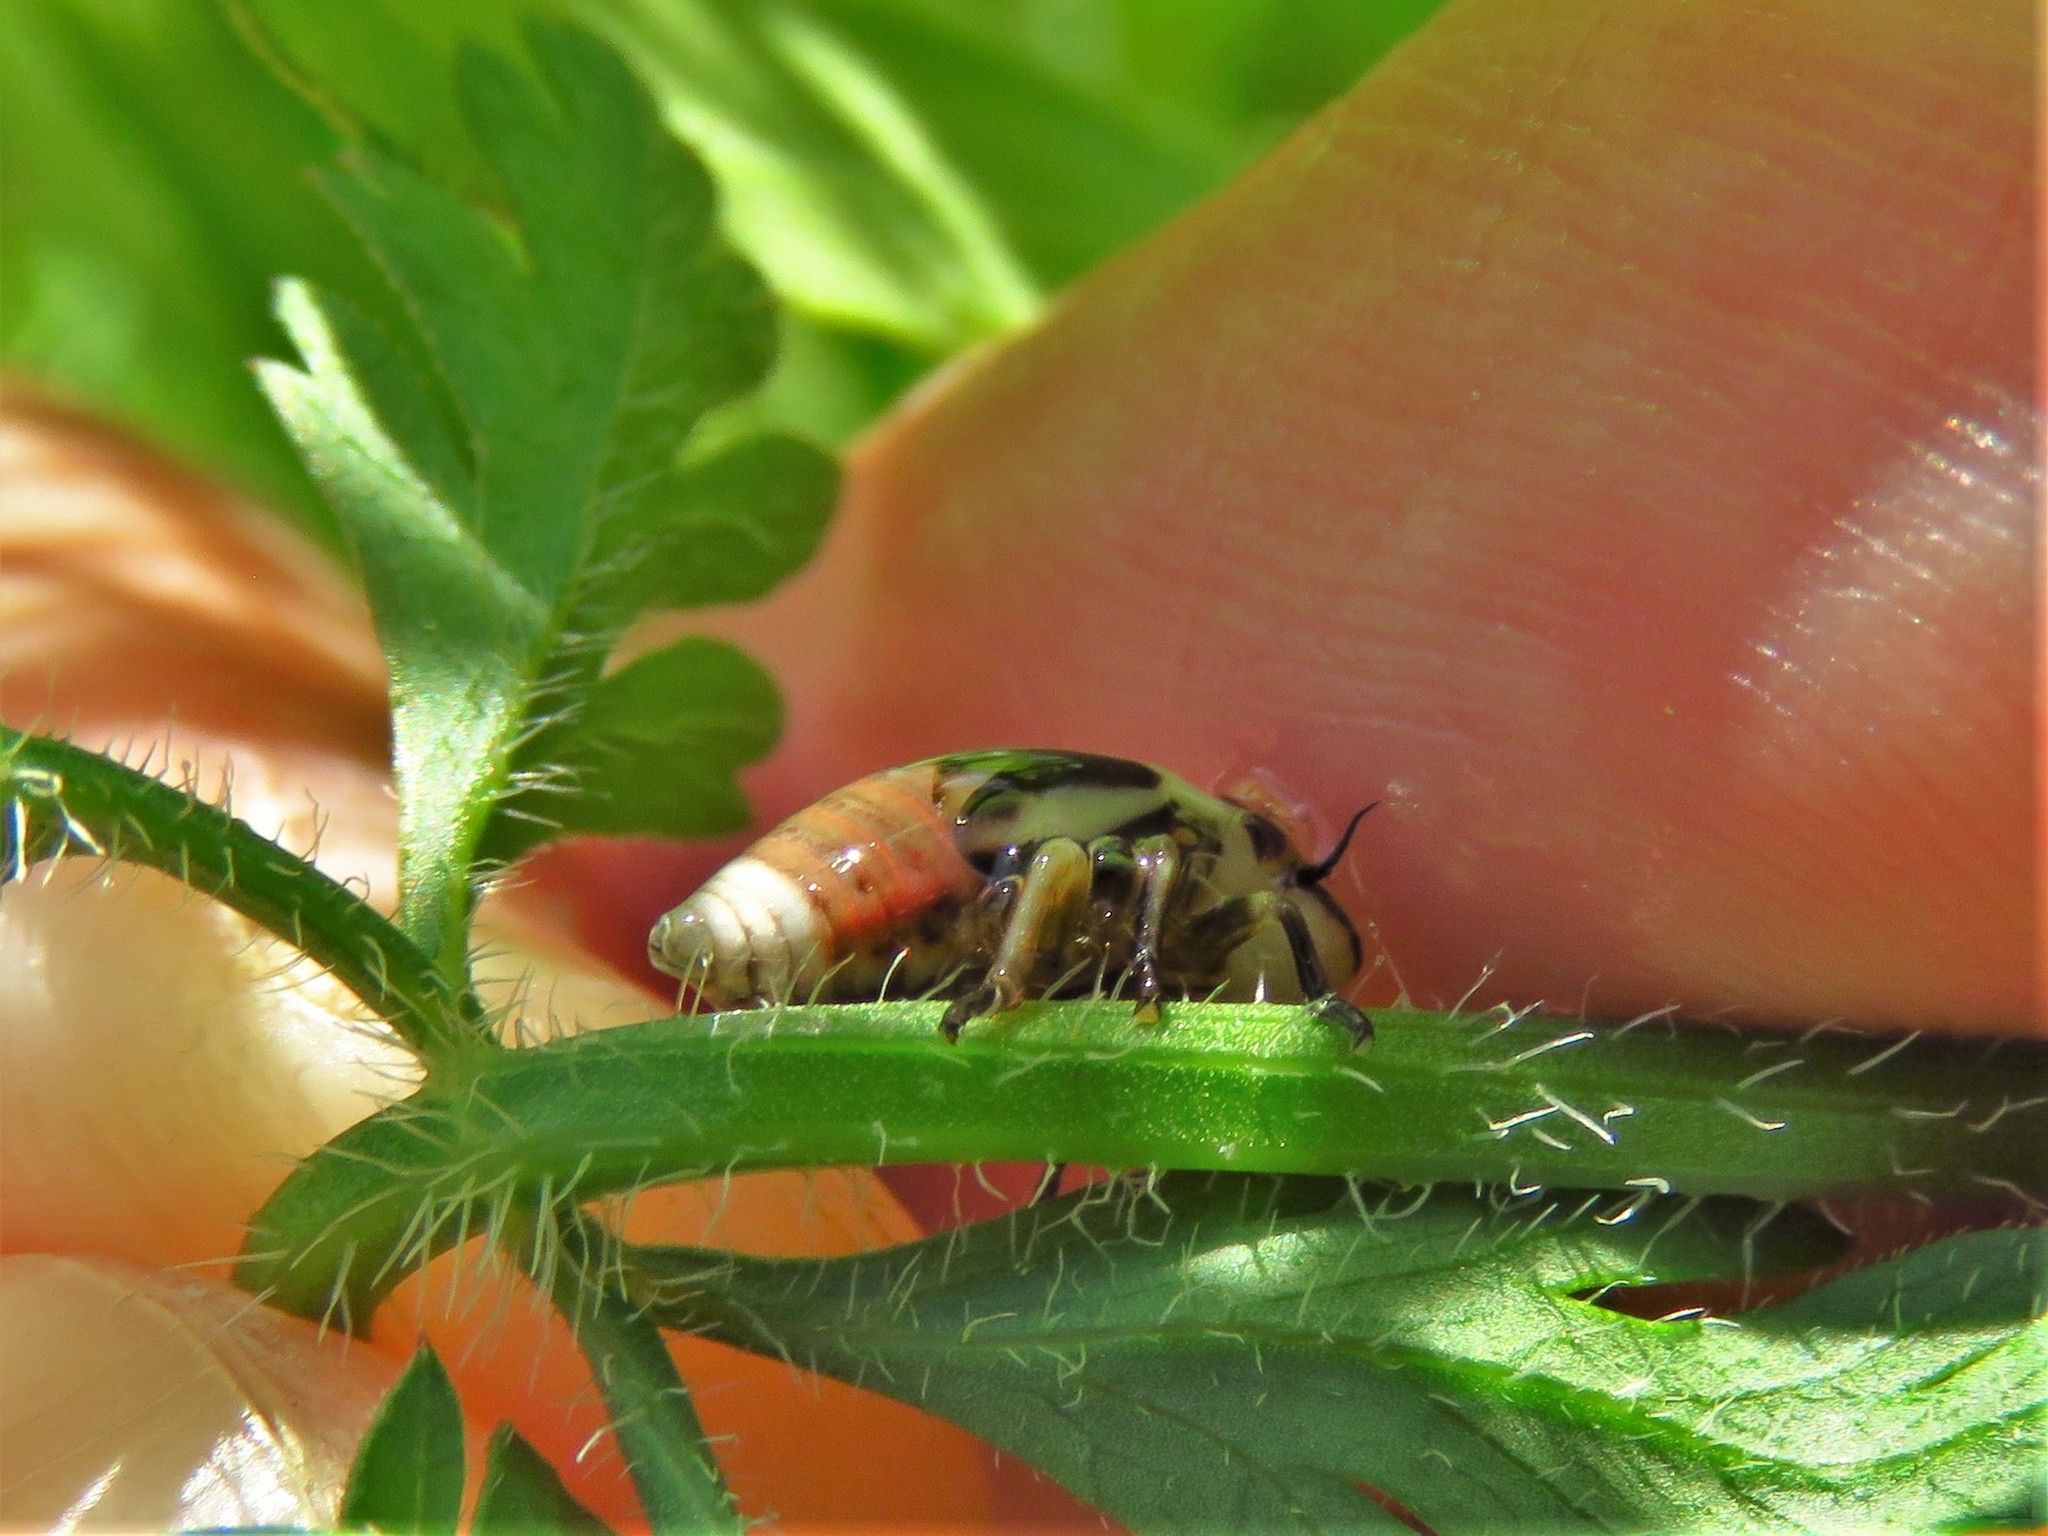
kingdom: Animalia
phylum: Arthropoda
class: Insecta
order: Hemiptera
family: Aphrophoridae
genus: Lepyronia
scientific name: Lepyronia gibbosa
